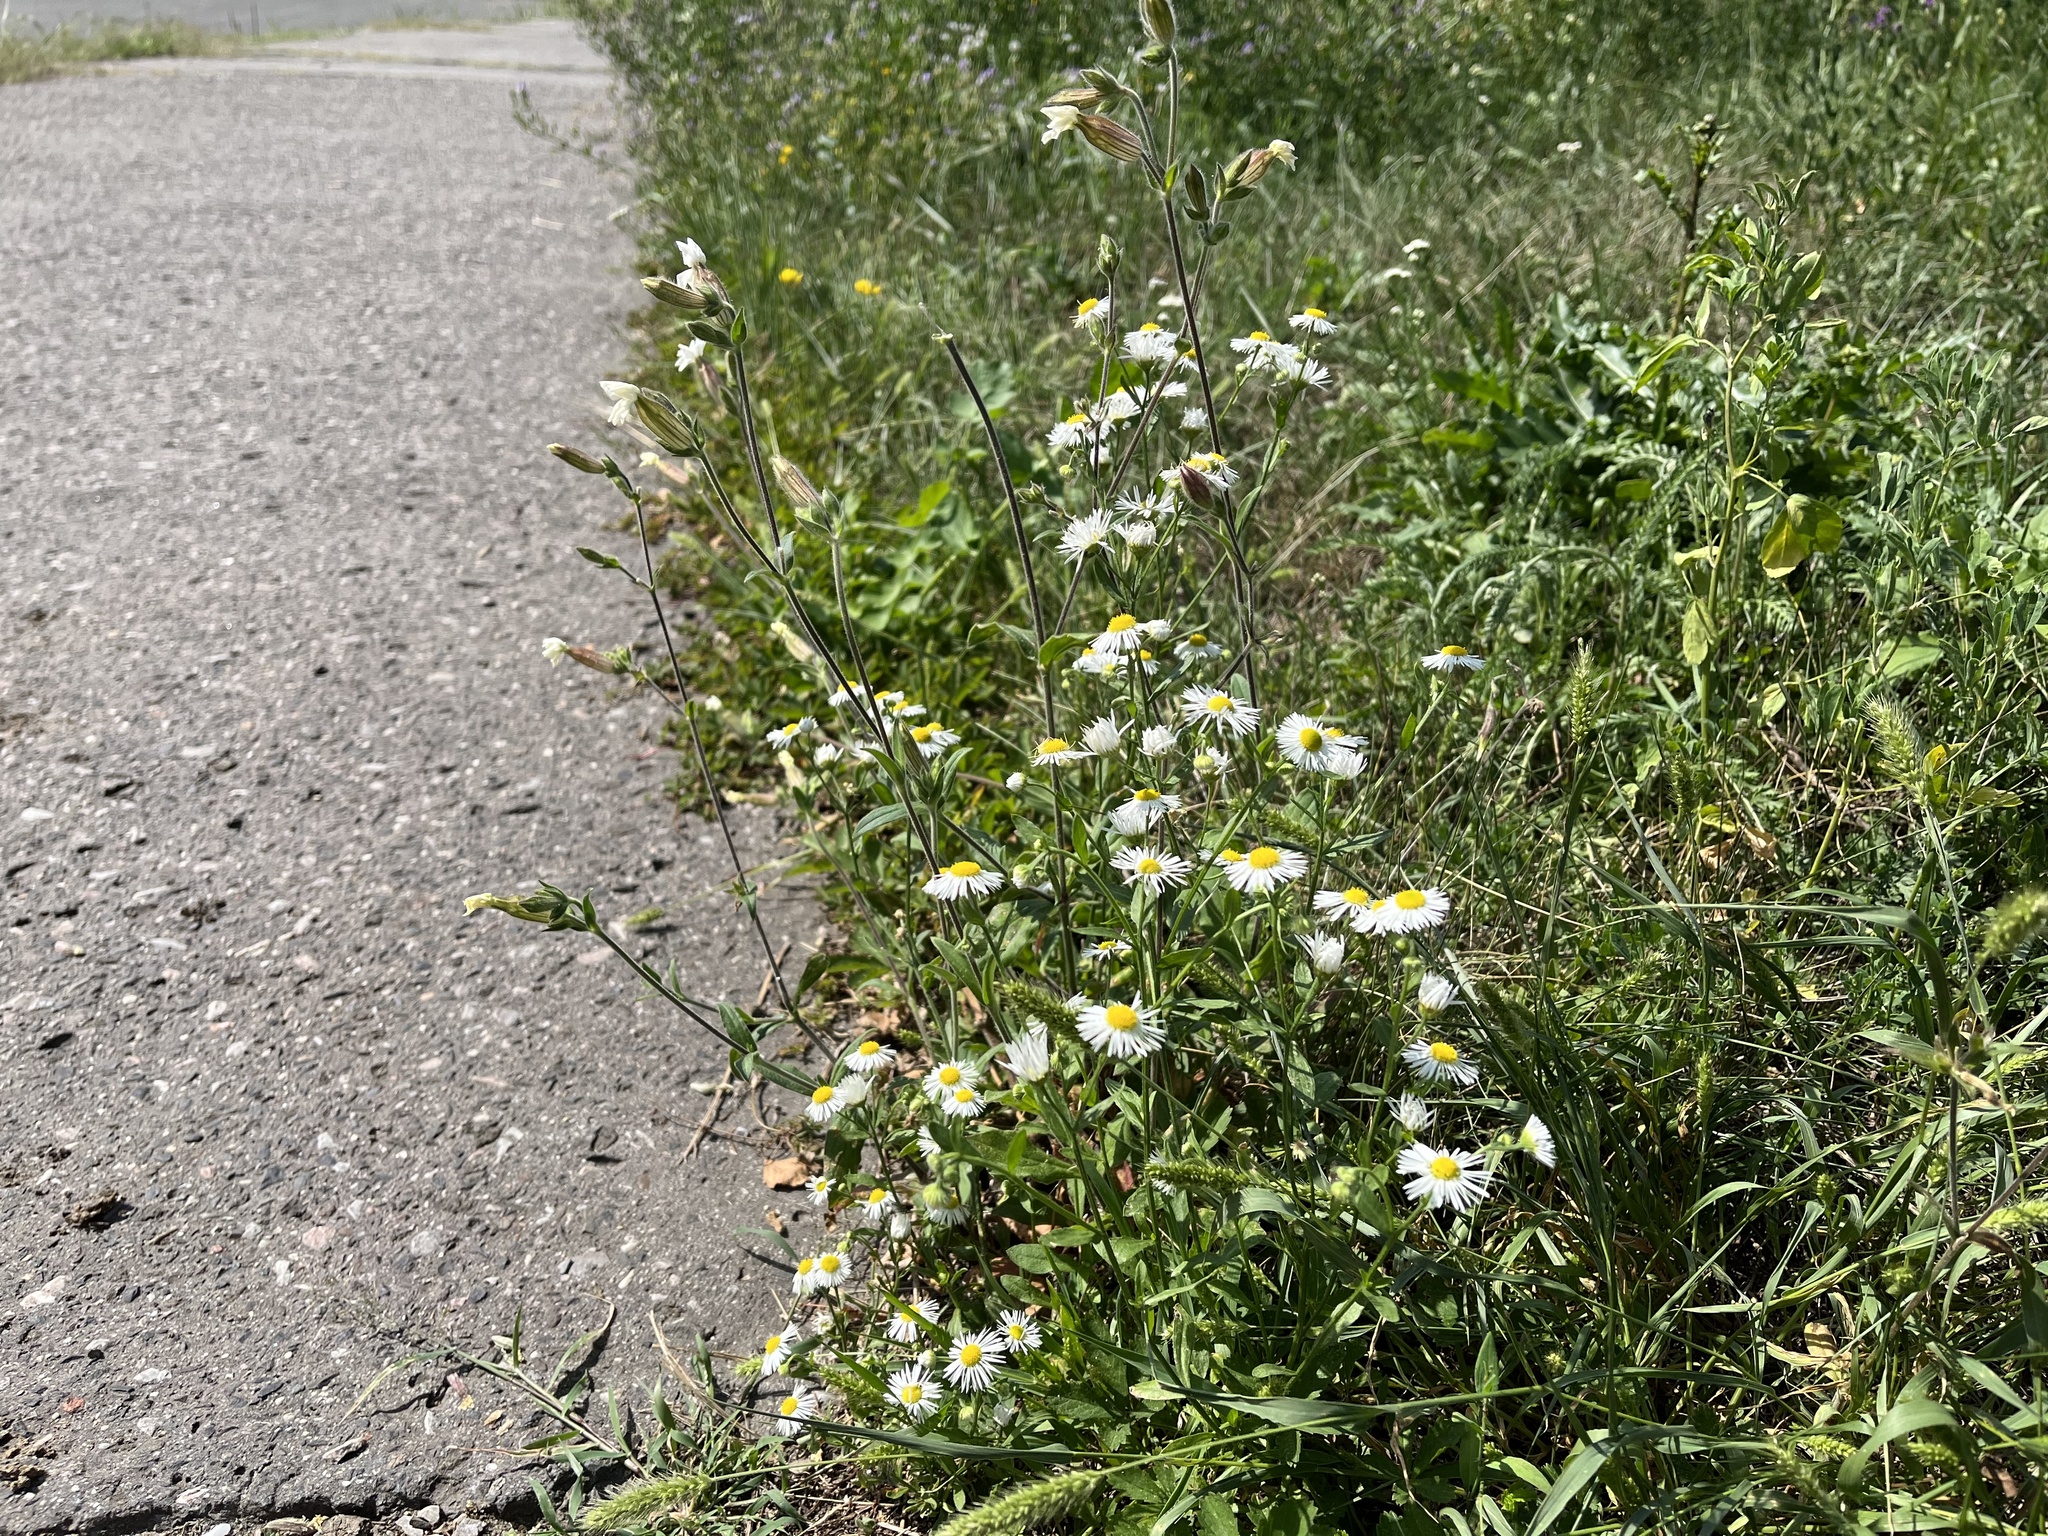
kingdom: Plantae
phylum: Tracheophyta
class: Magnoliopsida
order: Asterales
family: Asteraceae
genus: Erigeron
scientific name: Erigeron annuus
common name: Tall fleabane
